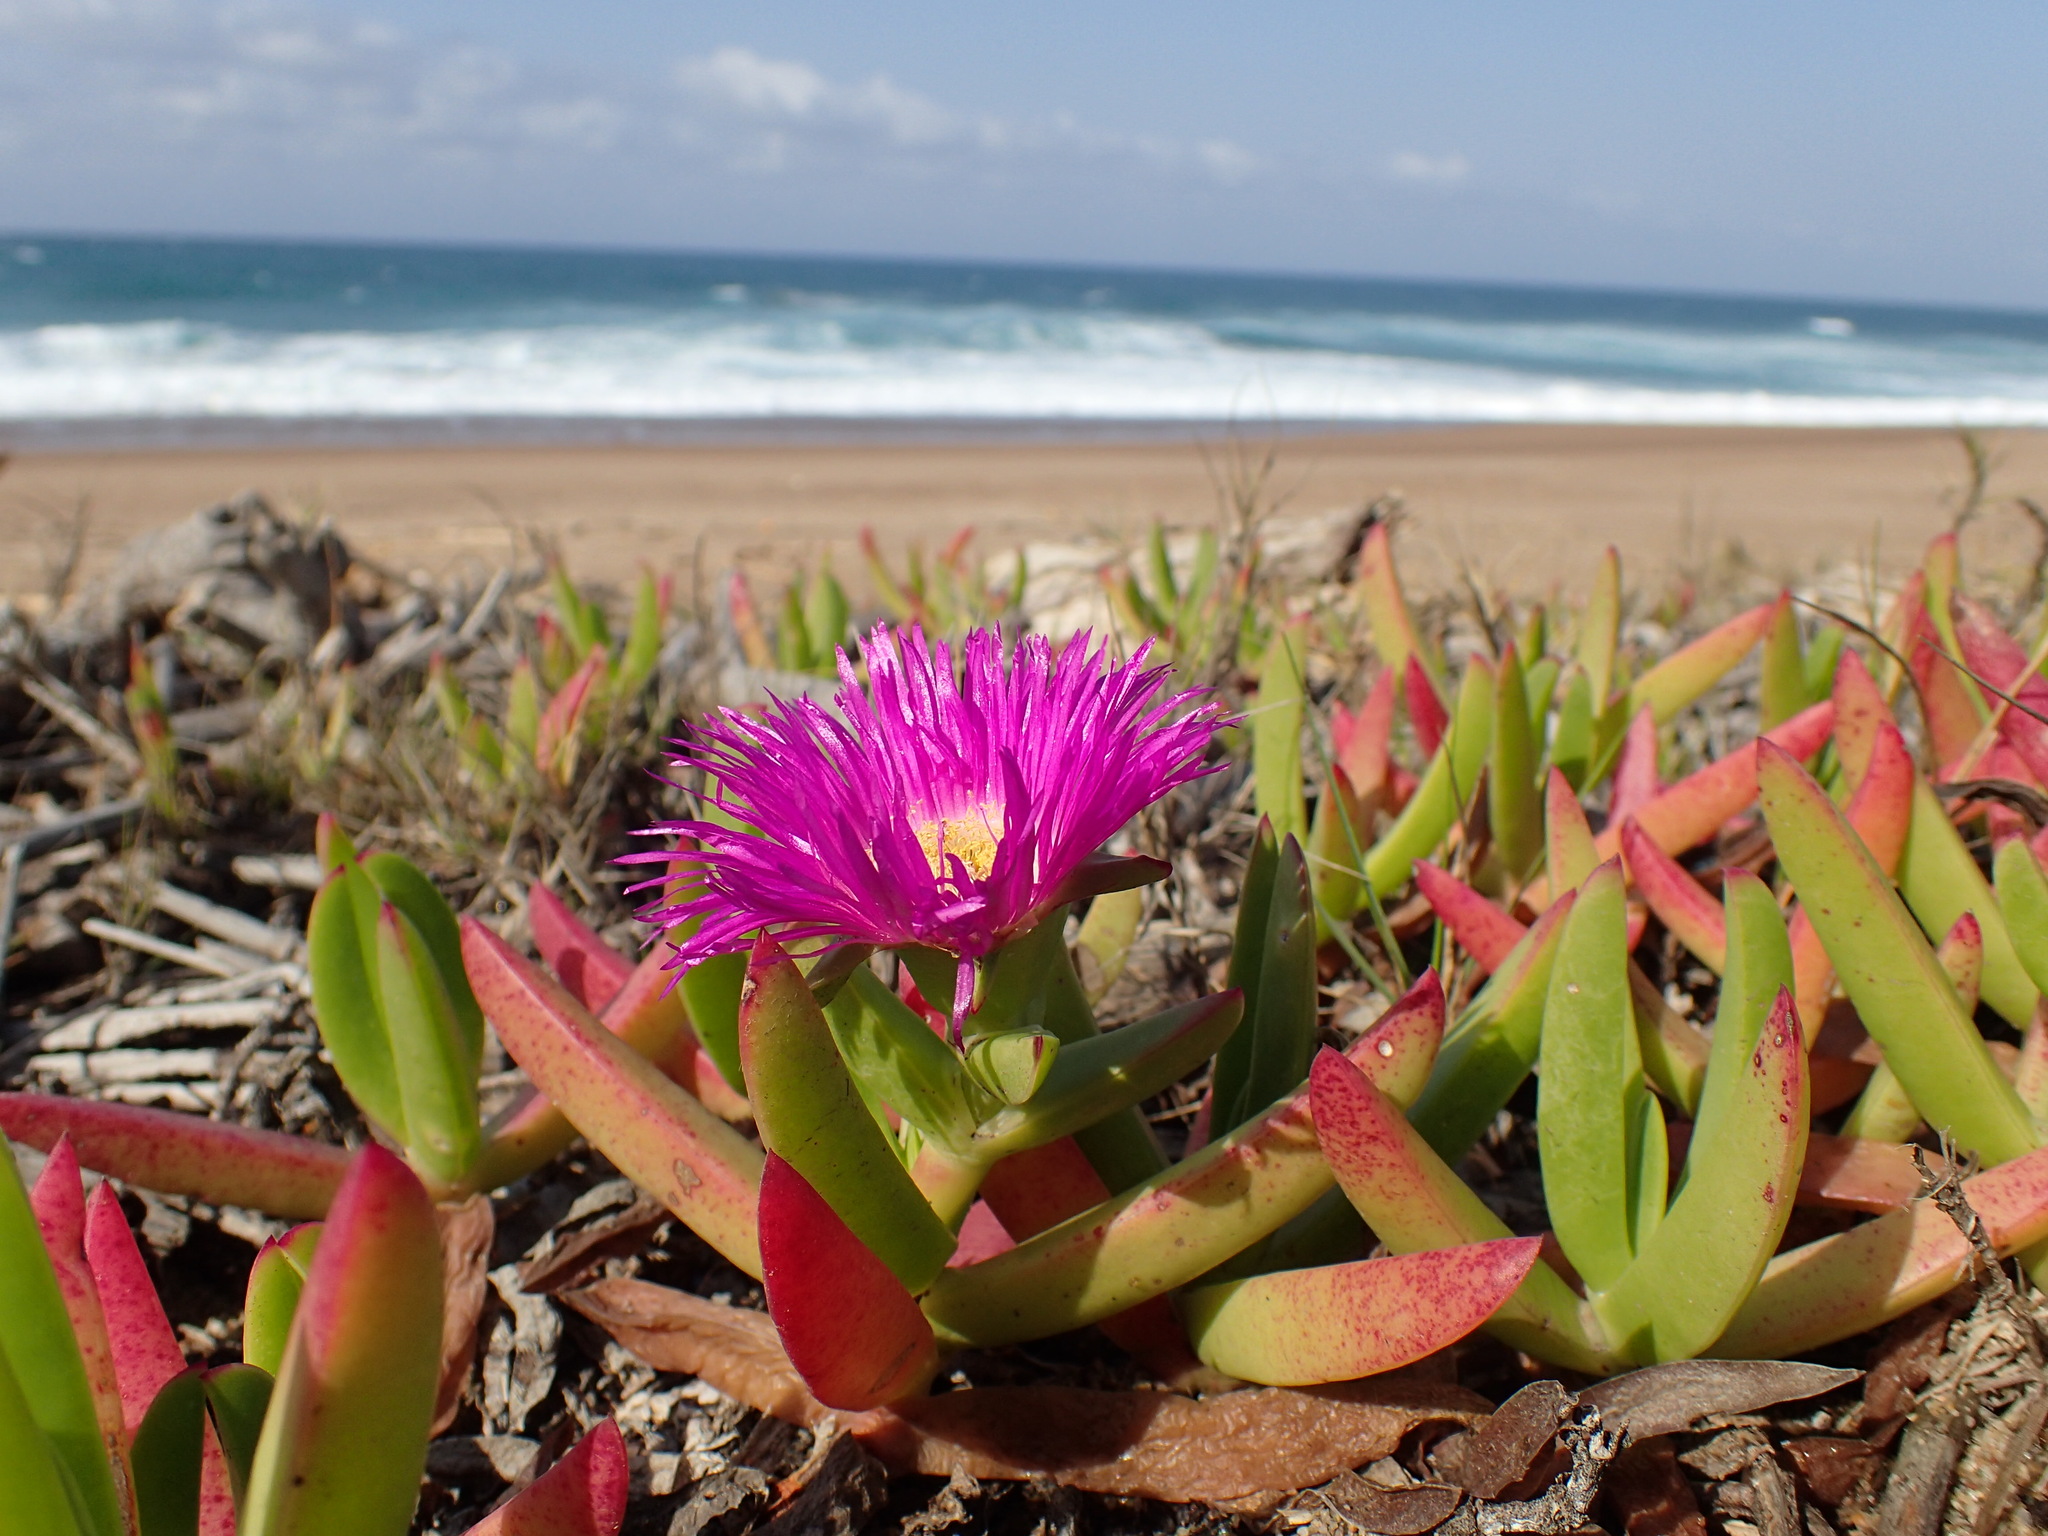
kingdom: Plantae
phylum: Tracheophyta
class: Magnoliopsida
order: Caryophyllales
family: Aizoaceae
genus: Carpobrotus
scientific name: Carpobrotus dimidiatus
